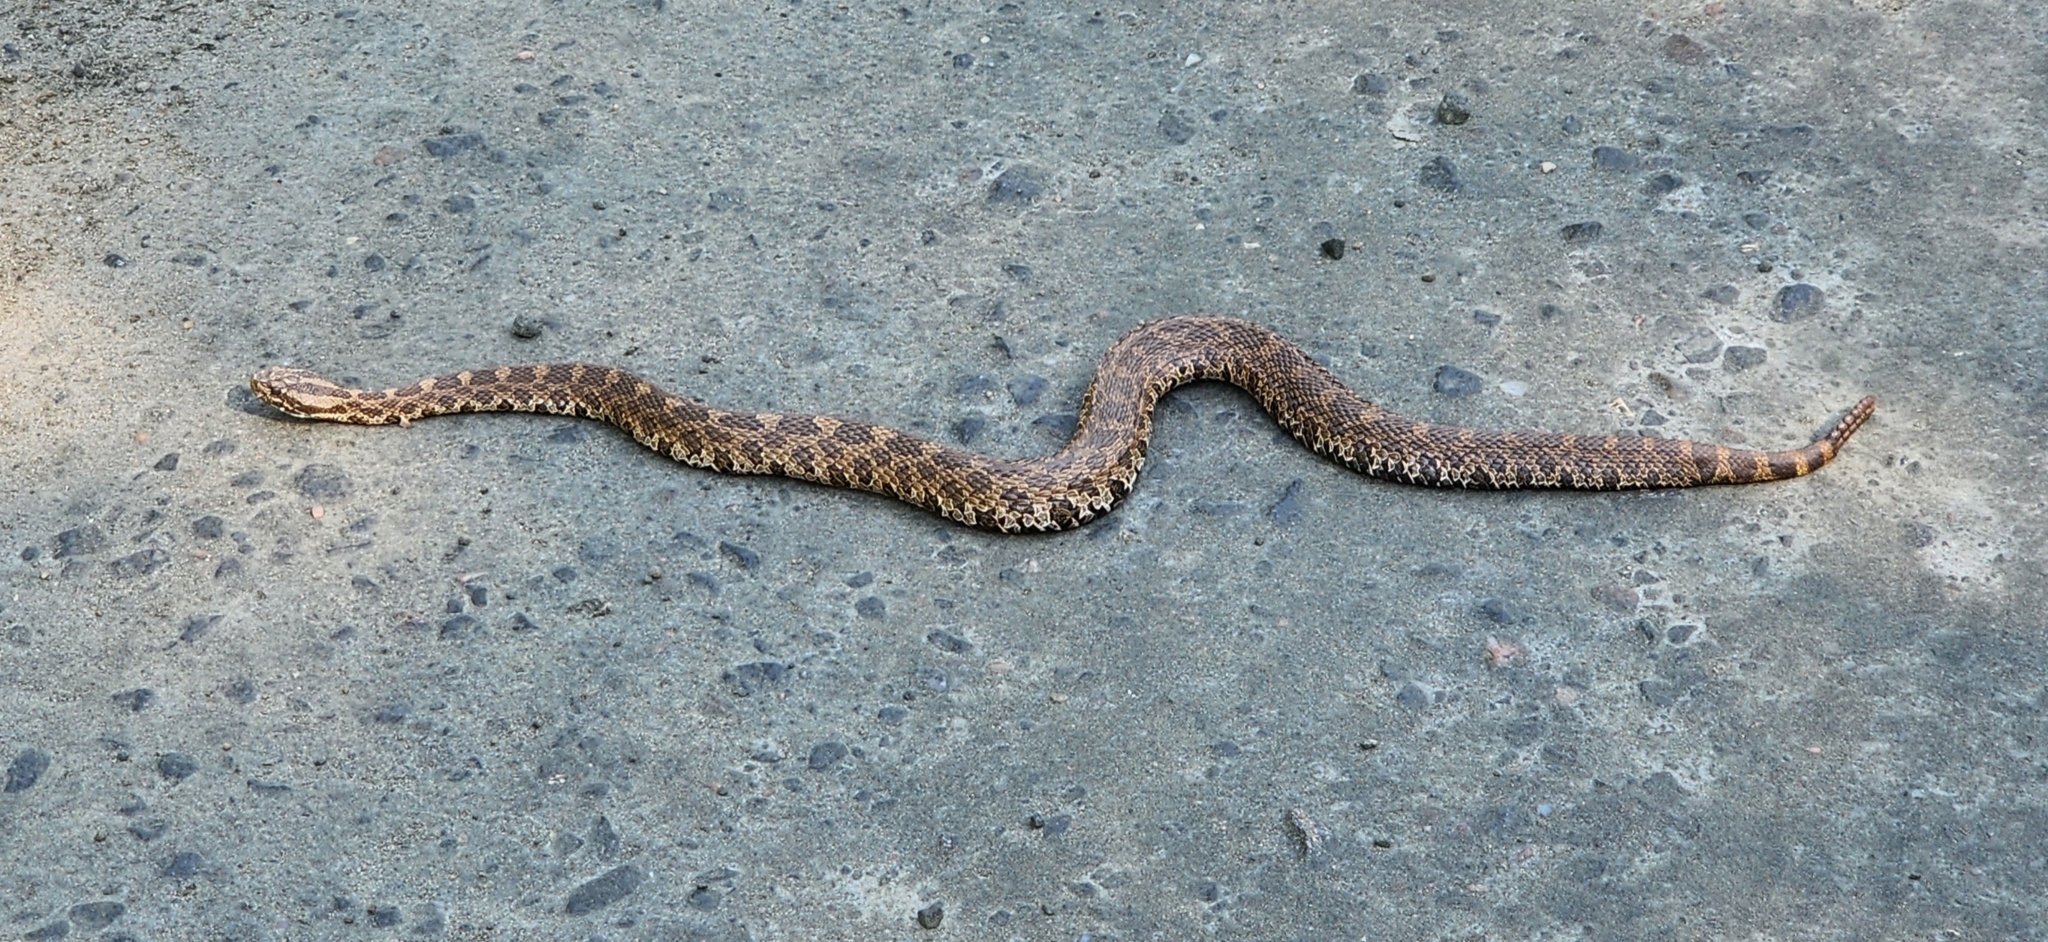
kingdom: Animalia
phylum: Chordata
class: Squamata
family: Viperidae
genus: Sistrurus
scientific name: Sistrurus catenatus
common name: Massasauga
